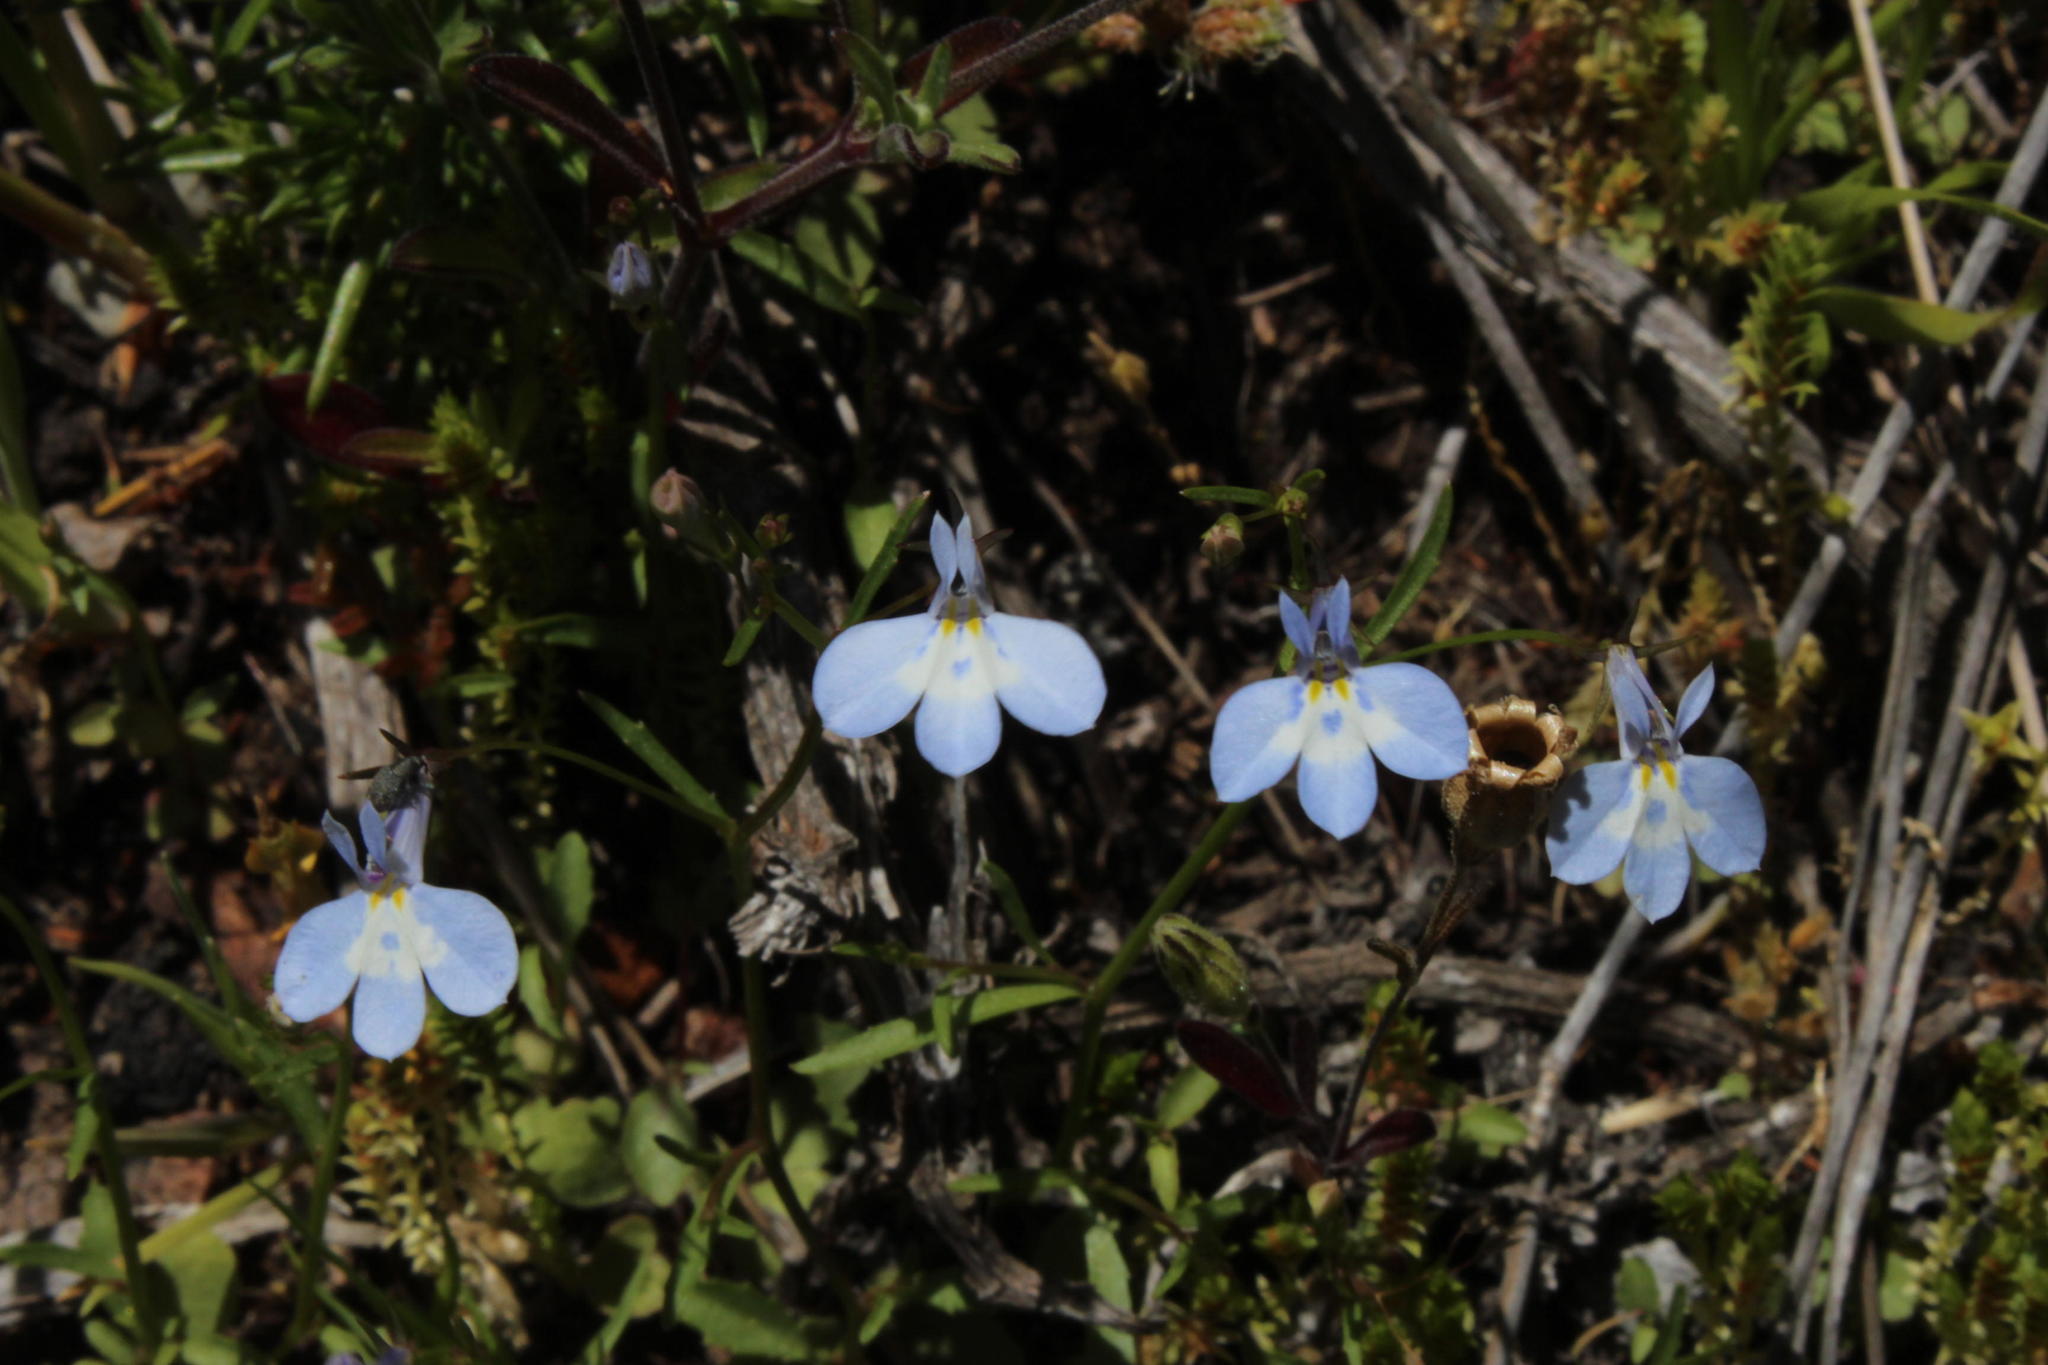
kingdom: Plantae
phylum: Tracheophyta
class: Magnoliopsida
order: Asterales
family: Campanulaceae
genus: Lobelia
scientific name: Lobelia erinus
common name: Edging lobelia
